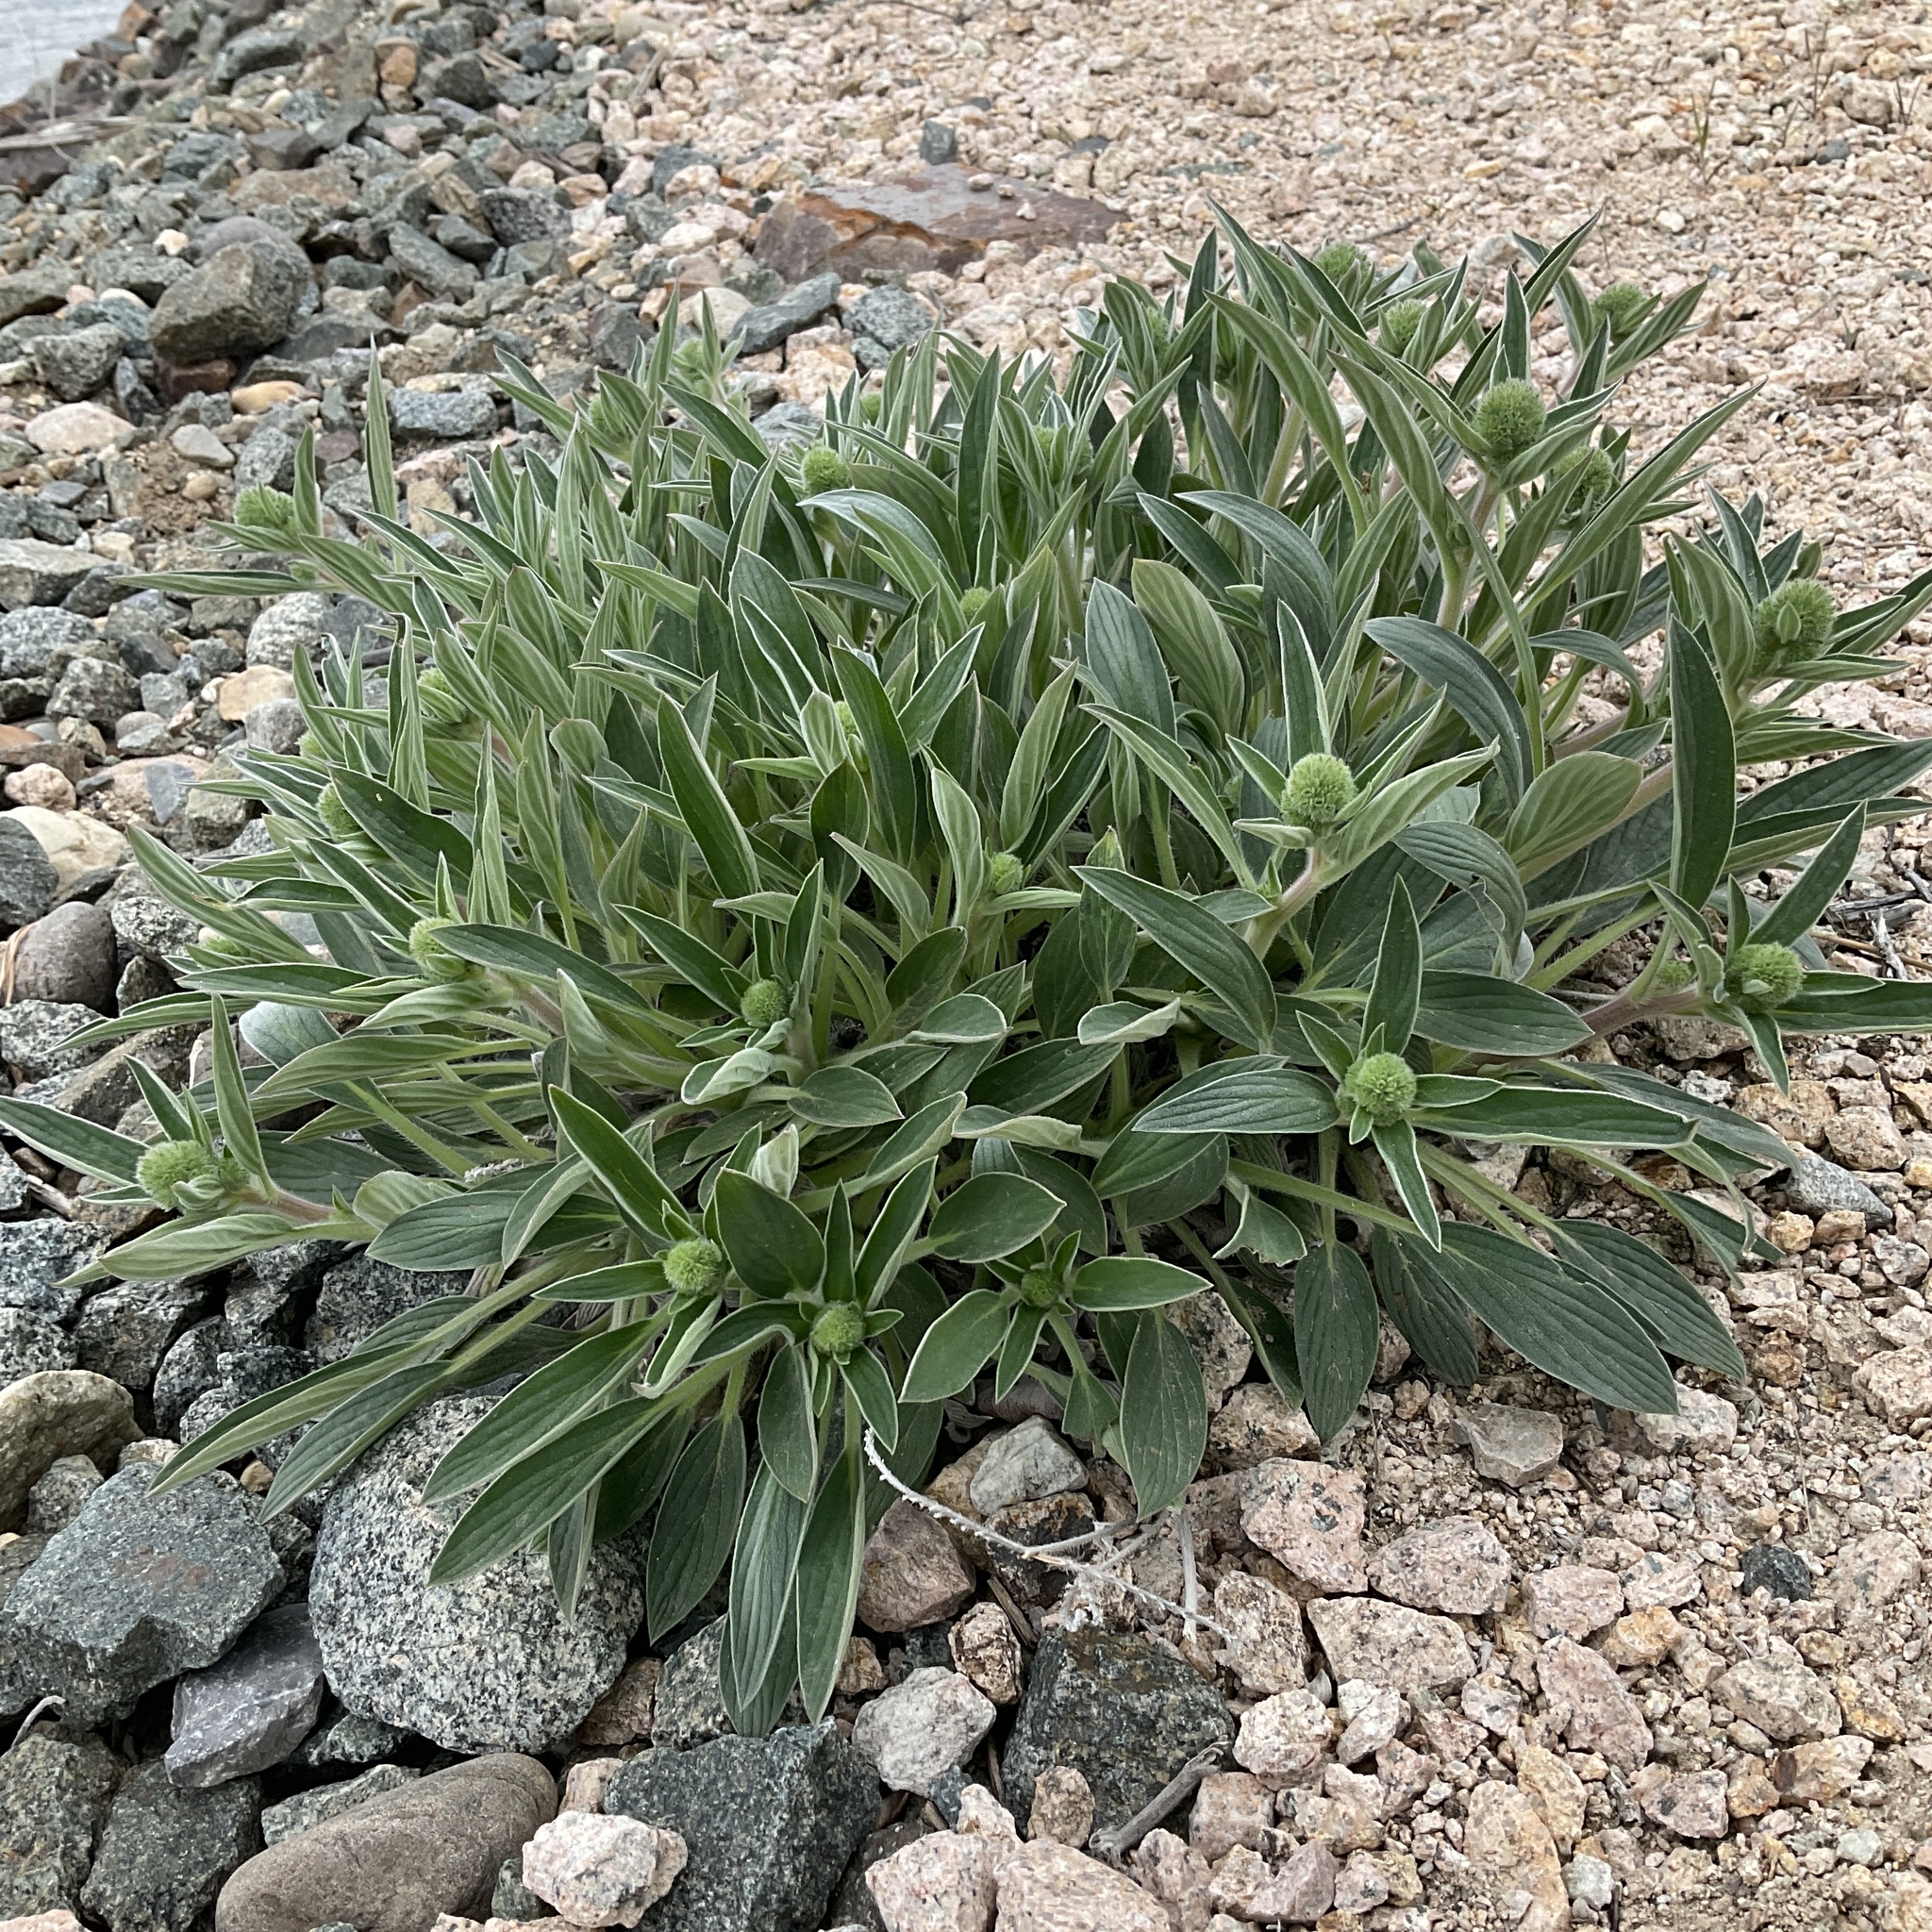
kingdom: Plantae
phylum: Tracheophyta
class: Magnoliopsida
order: Boraginales
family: Hydrophyllaceae
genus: Phacelia
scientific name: Phacelia hastata
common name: Silver-leaved phacelia
